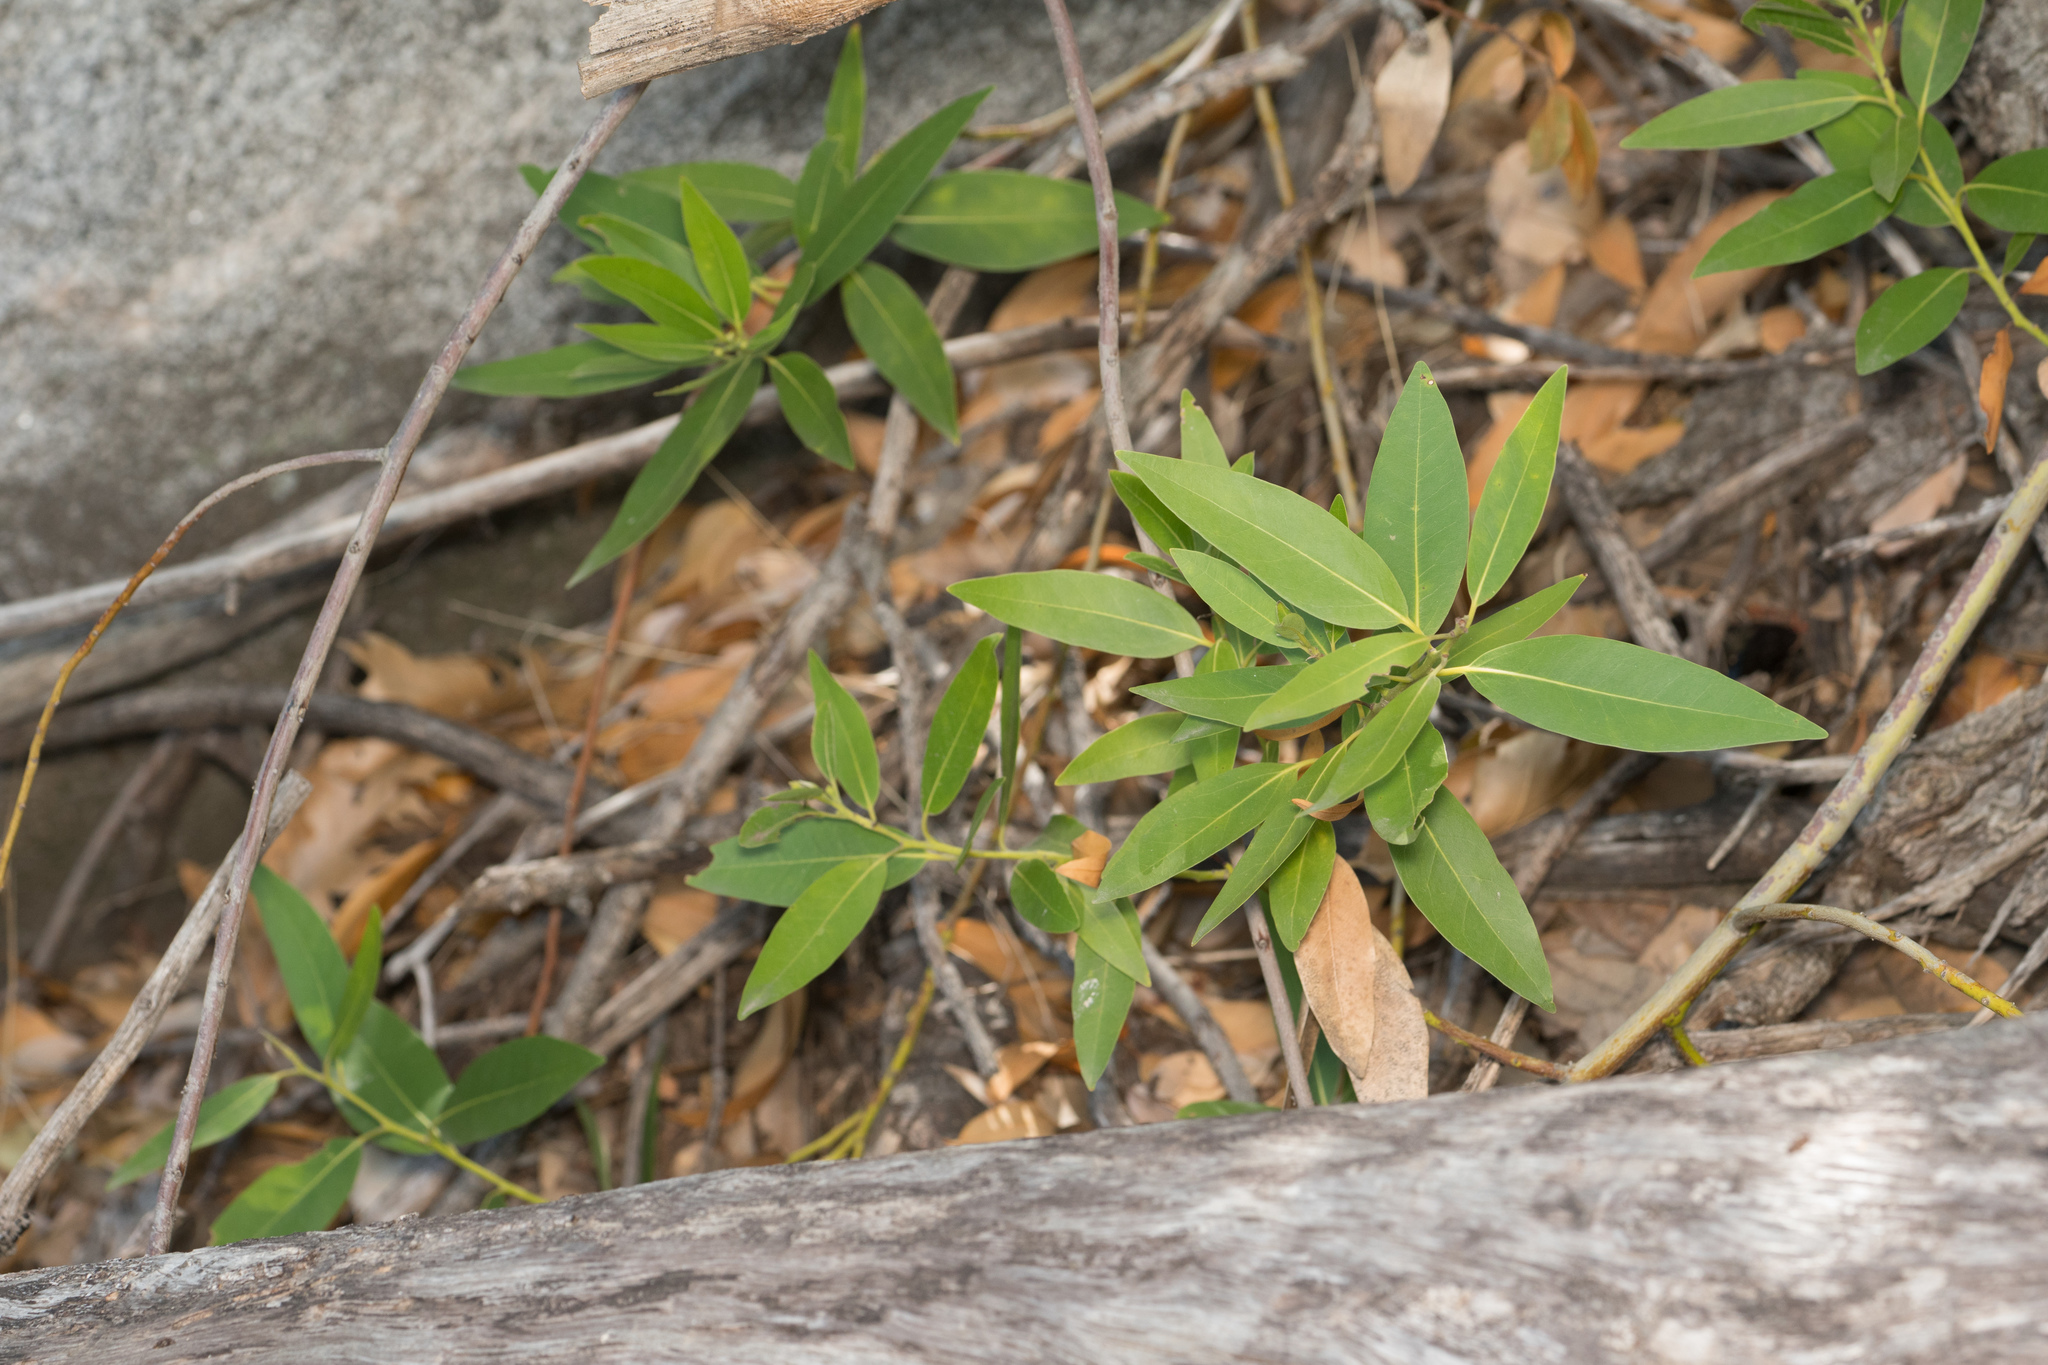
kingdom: Plantae
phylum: Tracheophyta
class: Magnoliopsida
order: Laurales
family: Lauraceae
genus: Umbellularia
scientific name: Umbellularia californica
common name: California bay
